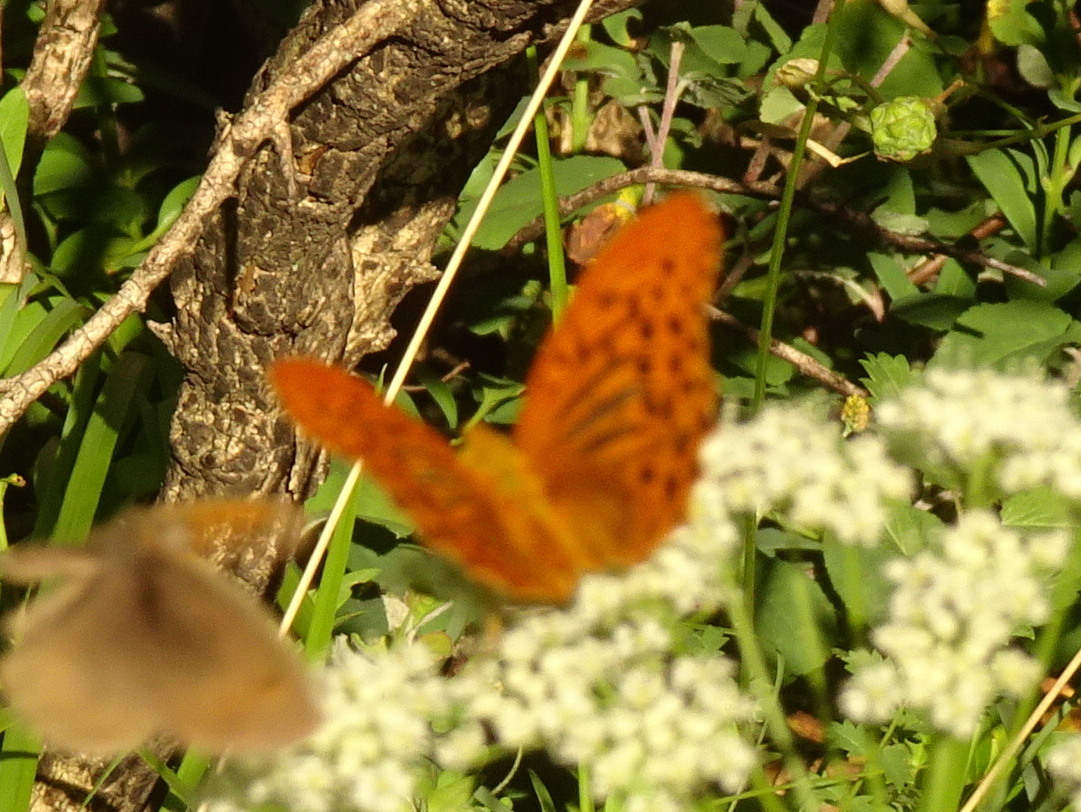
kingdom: Animalia
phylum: Arthropoda
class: Insecta
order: Lepidoptera
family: Nymphalidae
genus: Argynnis
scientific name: Argynnis paphia
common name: Silver-washed fritillary
